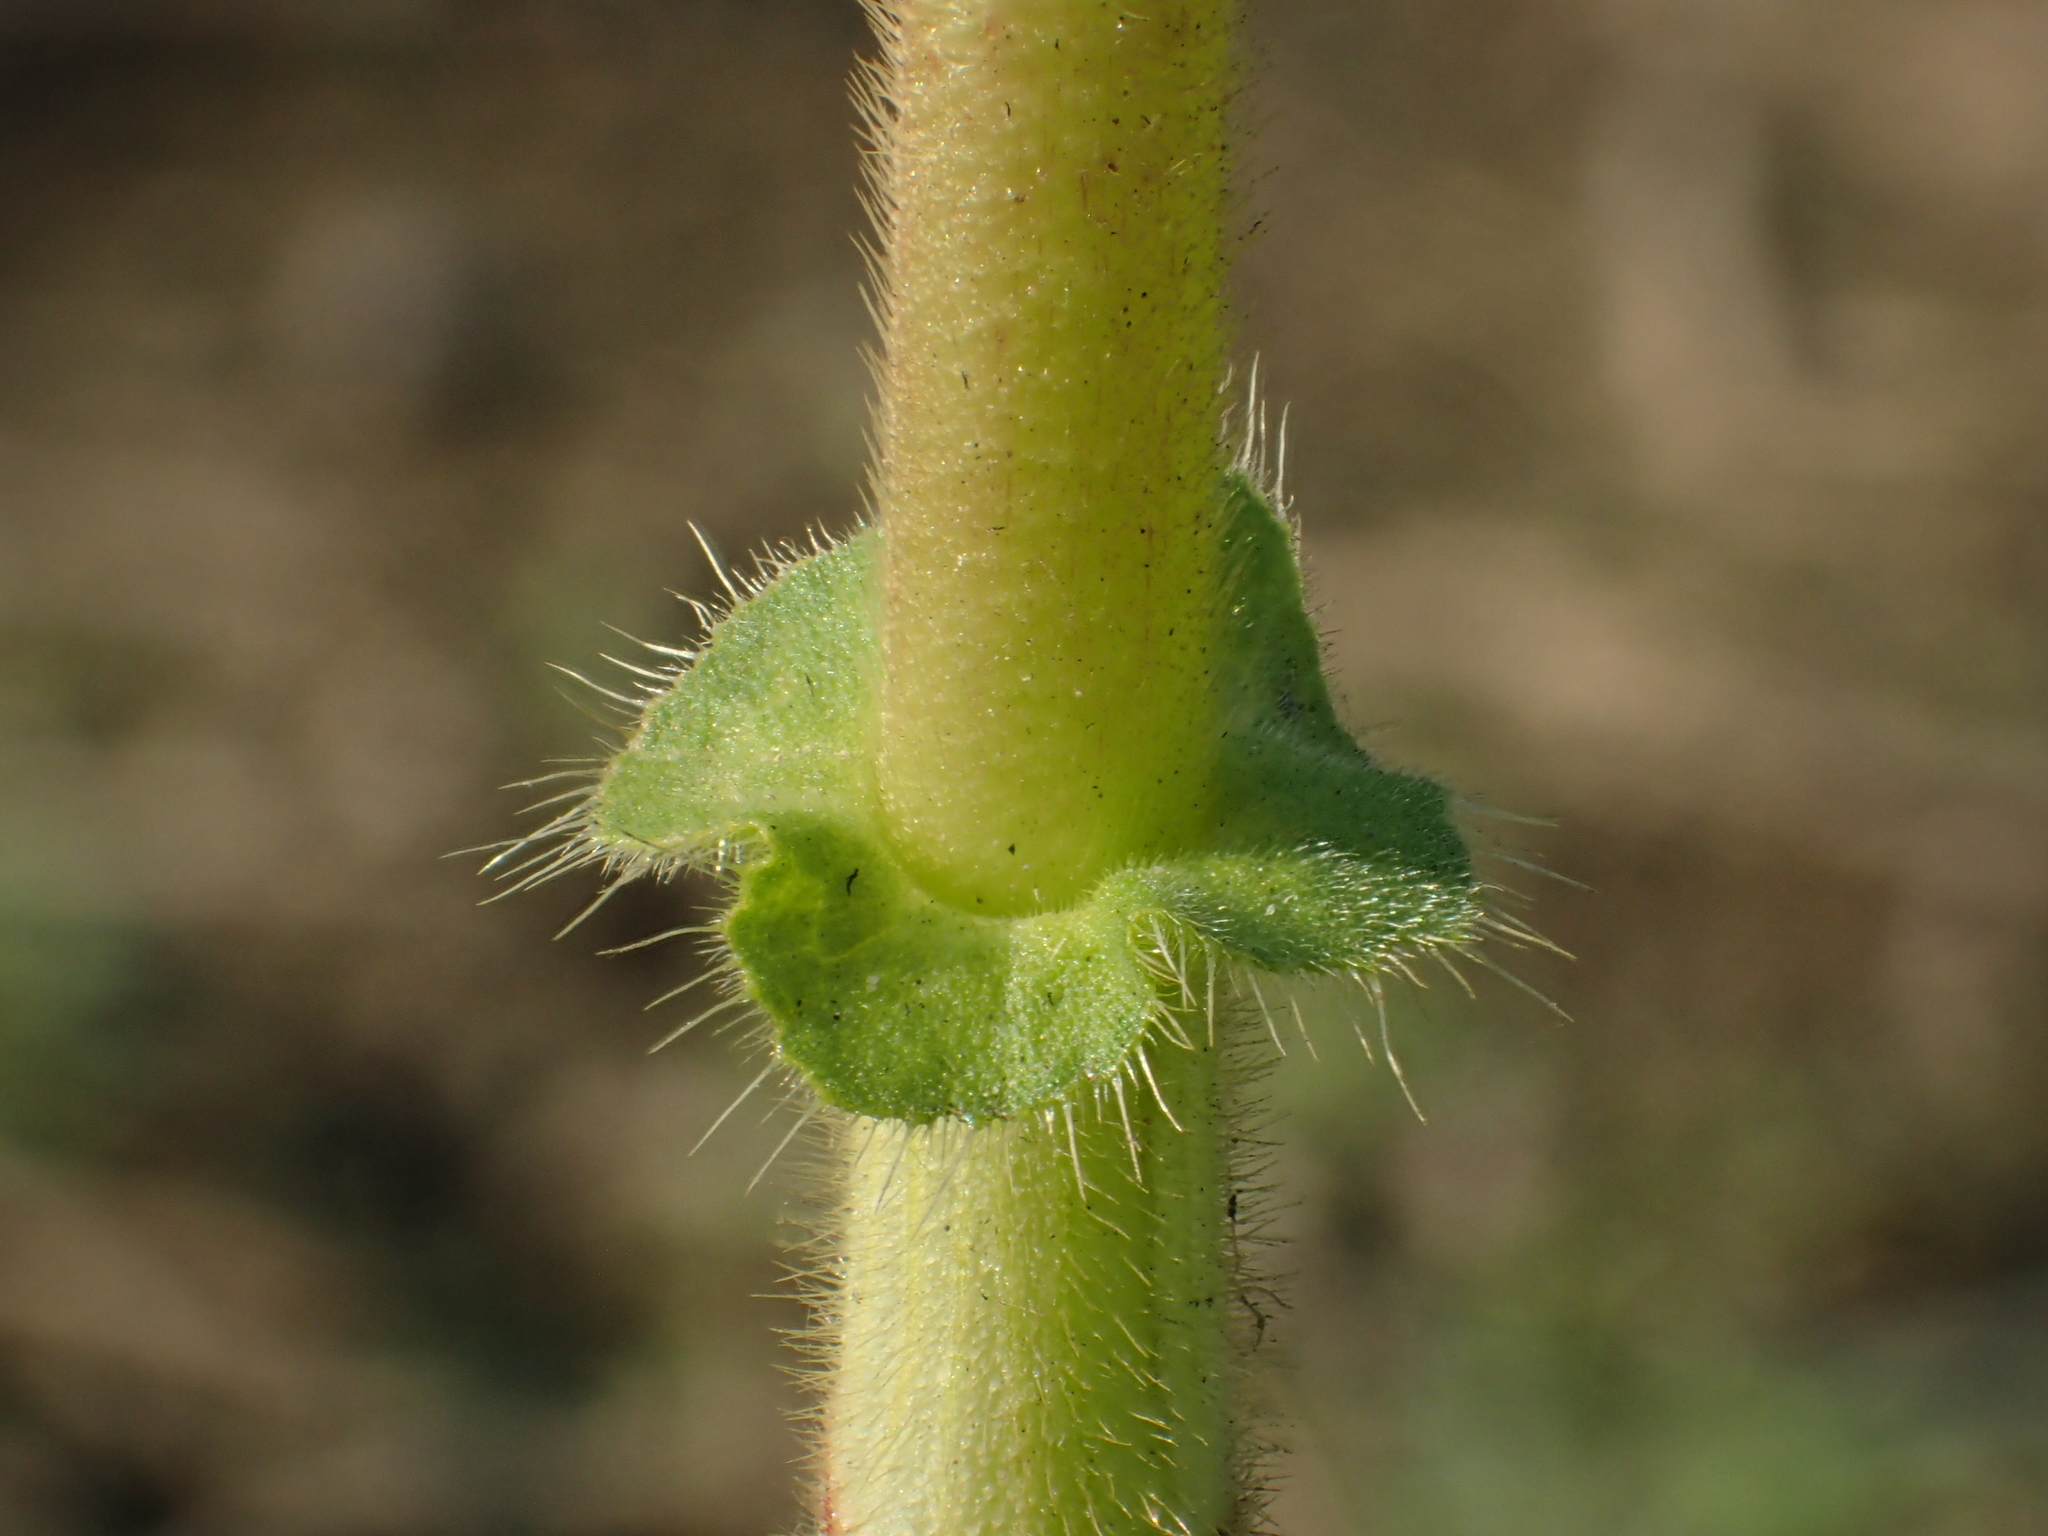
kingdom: Plantae
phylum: Tracheophyta
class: Magnoliopsida
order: Caryophyllales
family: Polygonaceae
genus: Persicaria
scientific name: Persicaria orientalis
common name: Kiss-me-over-the-garden-gate
